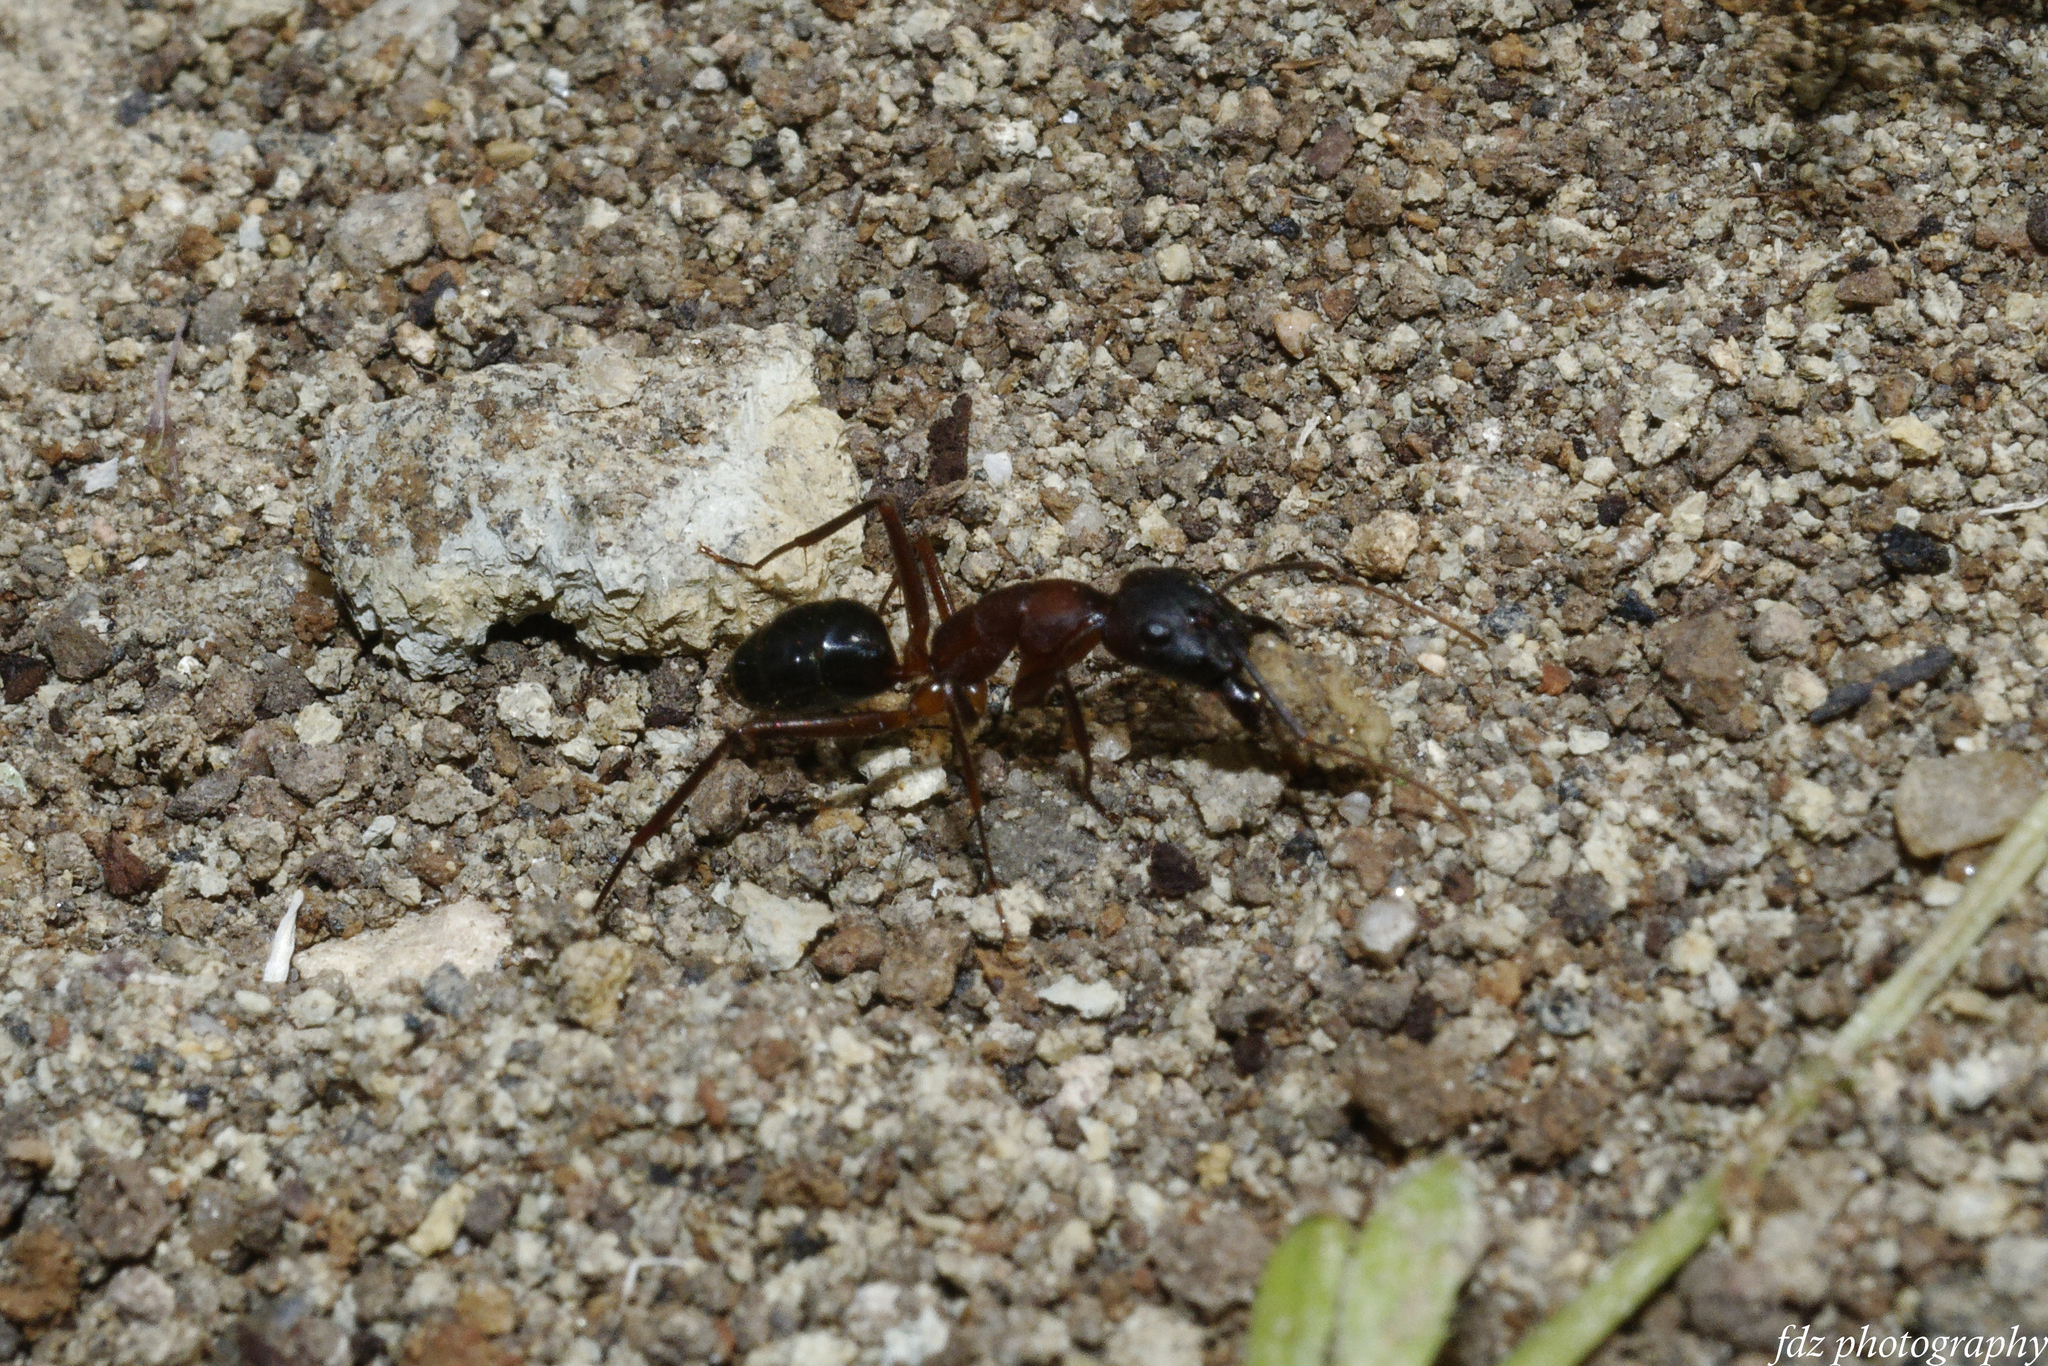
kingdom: Animalia
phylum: Arthropoda
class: Insecta
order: Hymenoptera
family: Formicidae
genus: Camponotus
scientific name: Camponotus barbaricus
